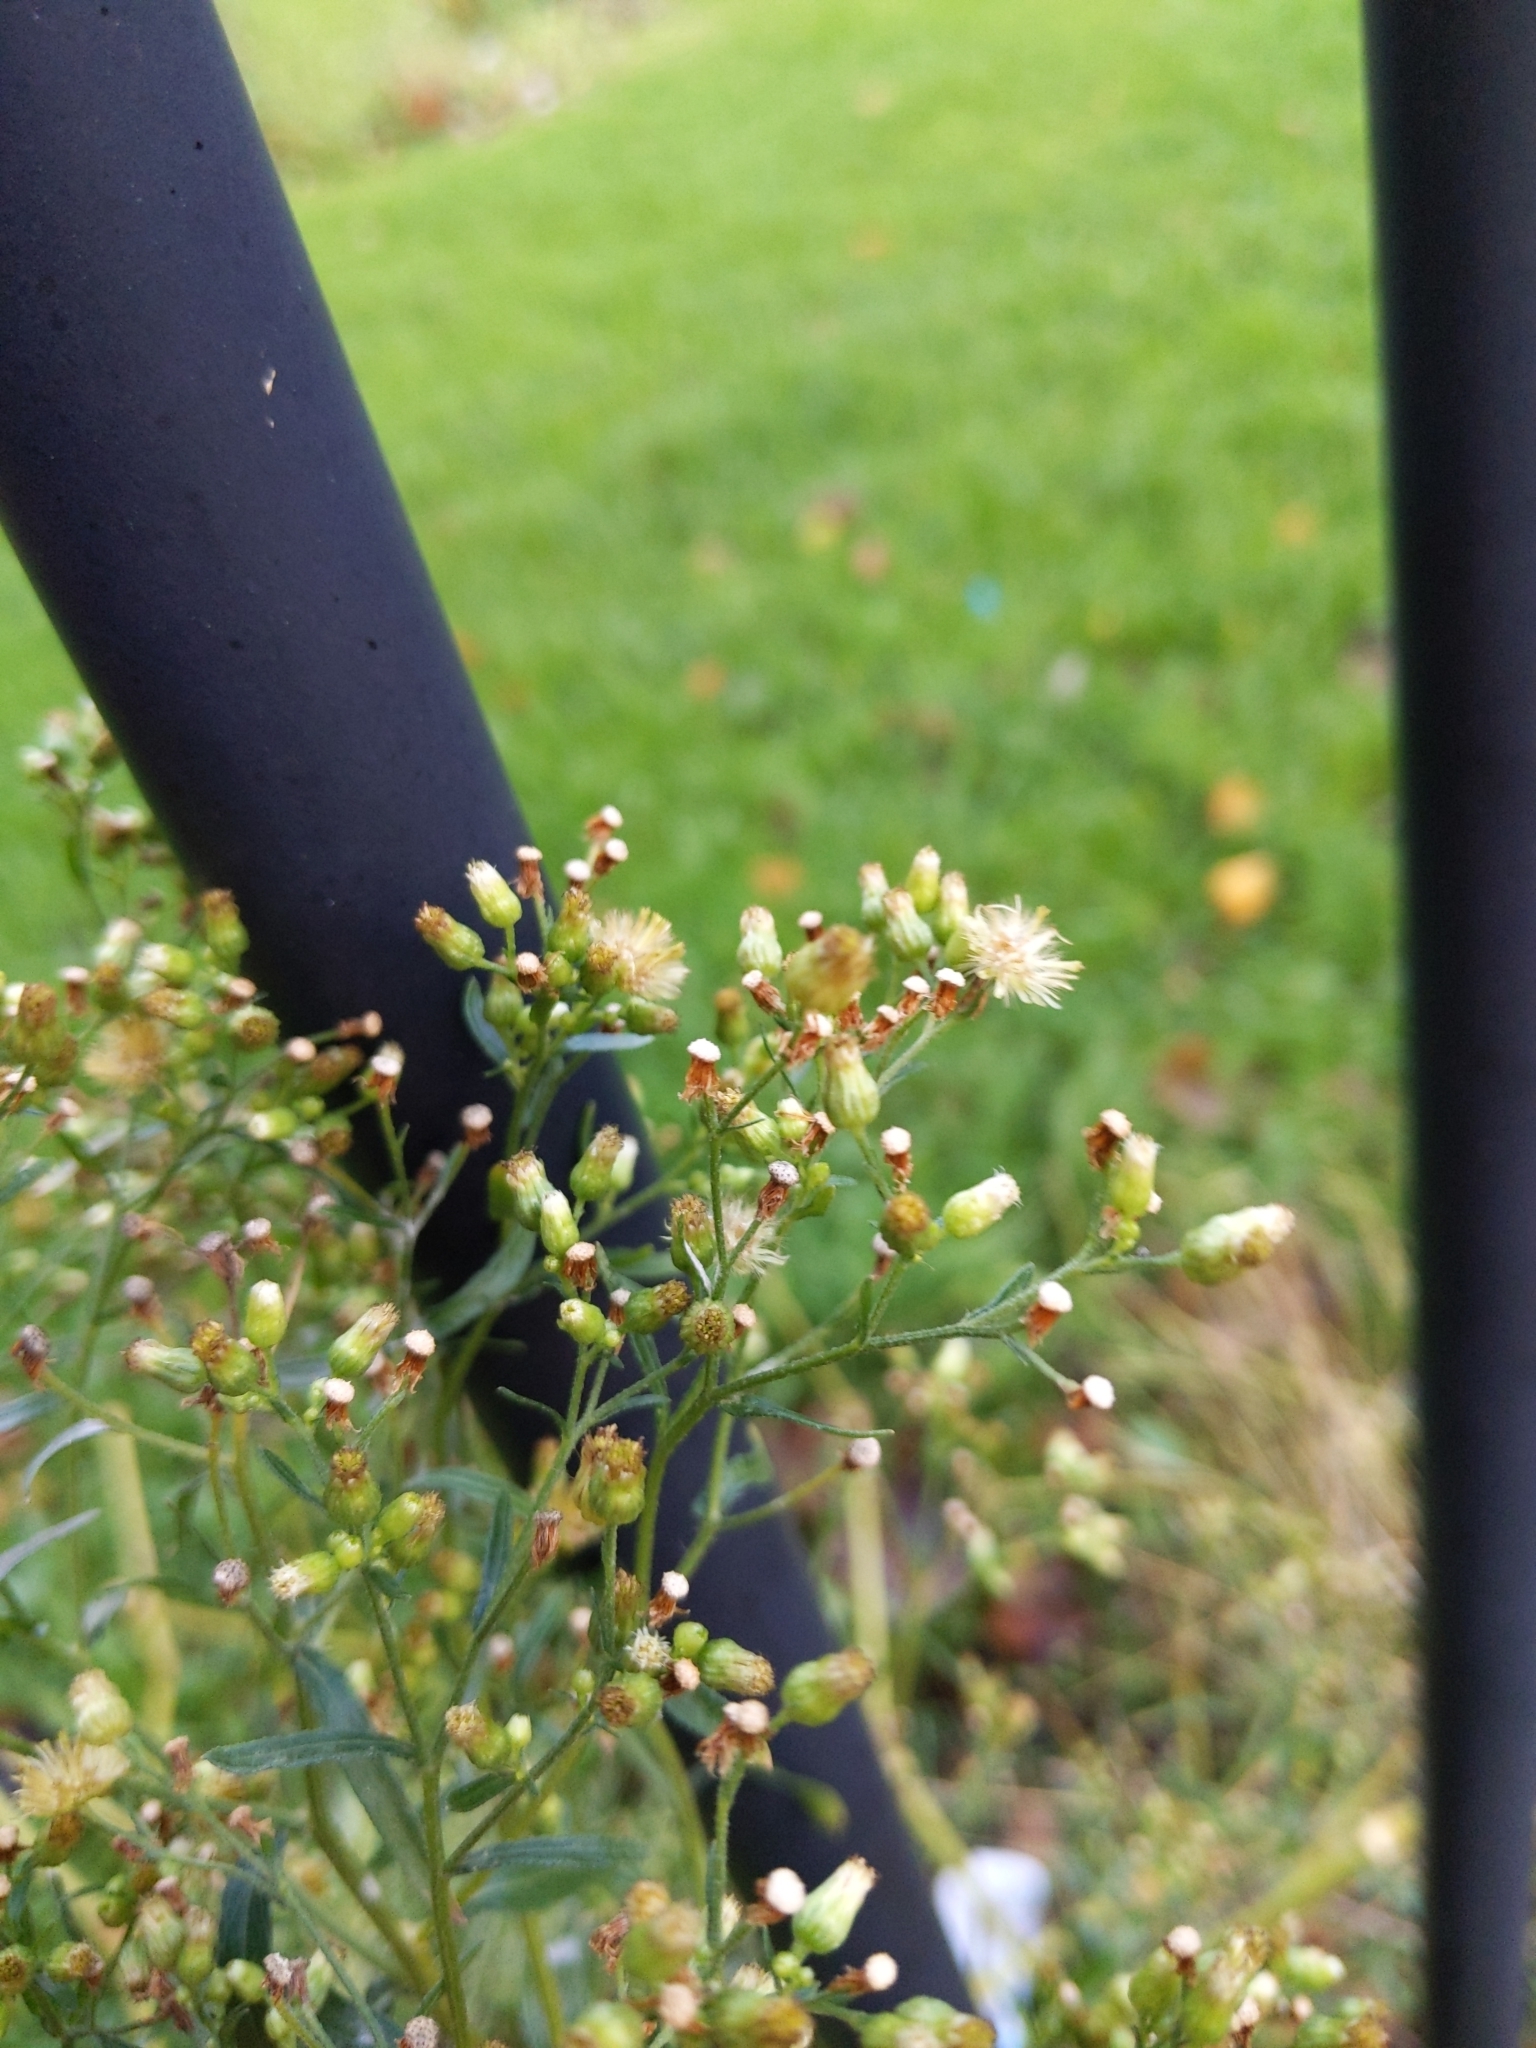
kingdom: Plantae
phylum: Tracheophyta
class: Magnoliopsida
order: Asterales
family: Asteraceae
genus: Erigeron
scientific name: Erigeron floribundus
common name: Bilbao fleabane
